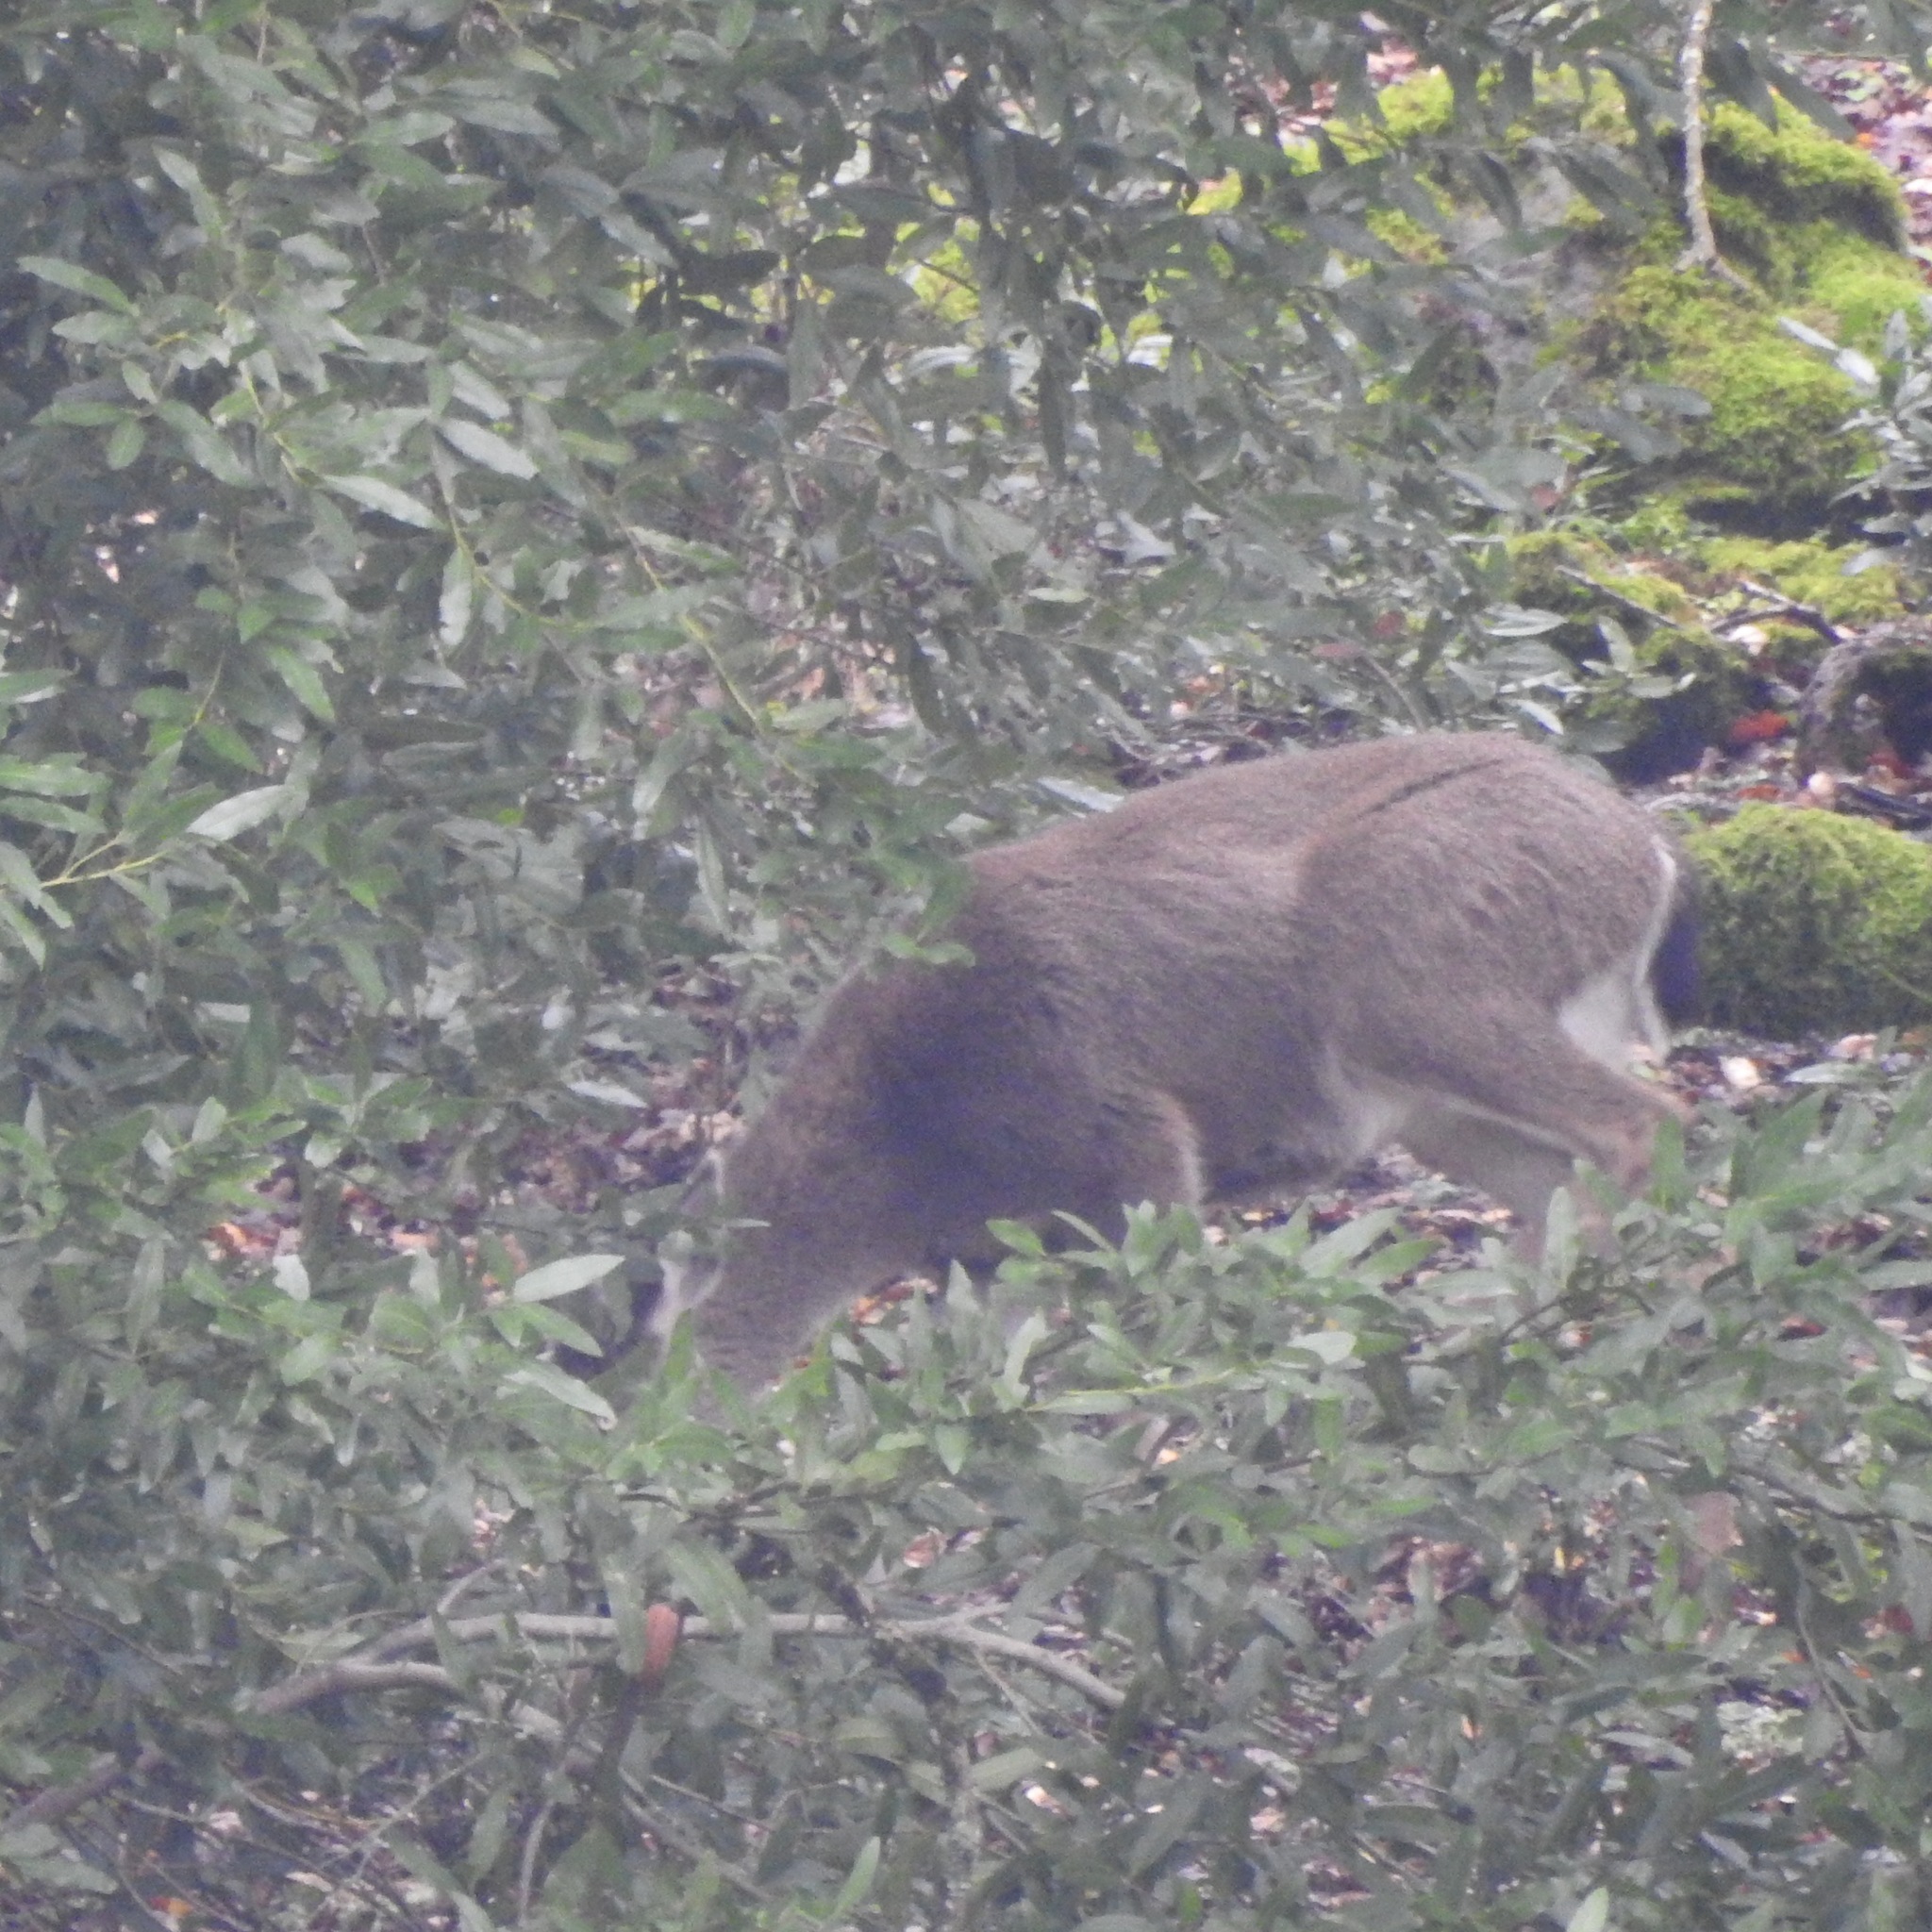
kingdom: Animalia
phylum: Chordata
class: Mammalia
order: Artiodactyla
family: Cervidae
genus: Odocoileus
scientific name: Odocoileus hemionus
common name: Mule deer
